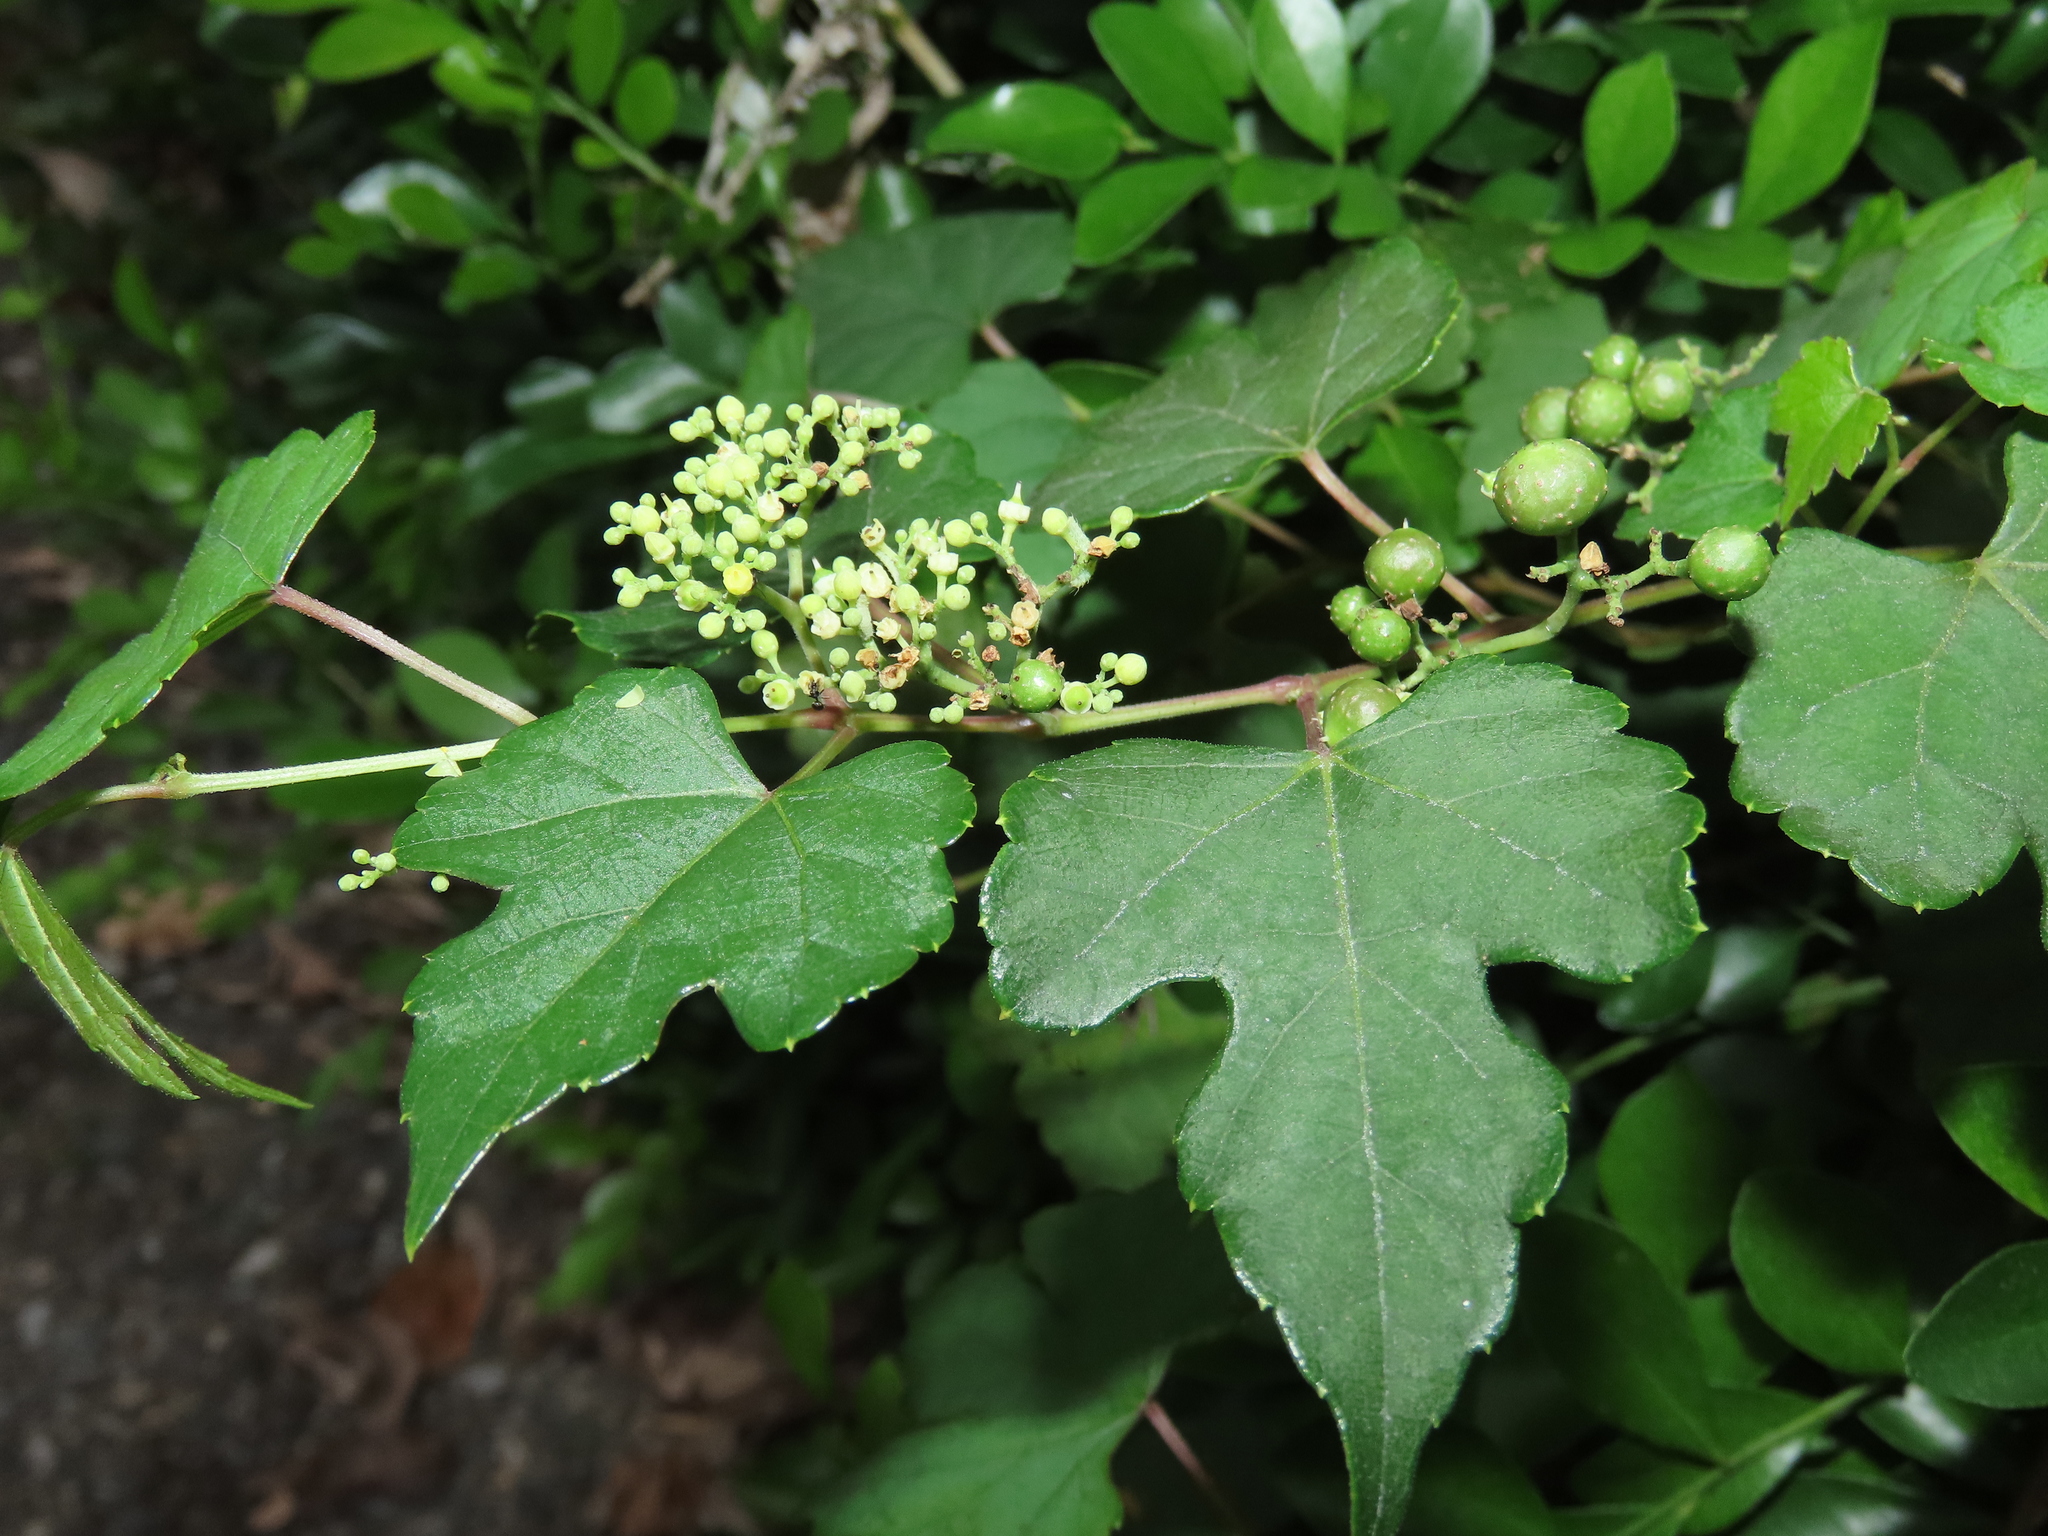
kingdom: Plantae
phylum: Tracheophyta
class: Magnoliopsida
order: Vitales
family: Vitaceae
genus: Ampelopsis
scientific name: Ampelopsis glandulosa
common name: Amur peppervine
